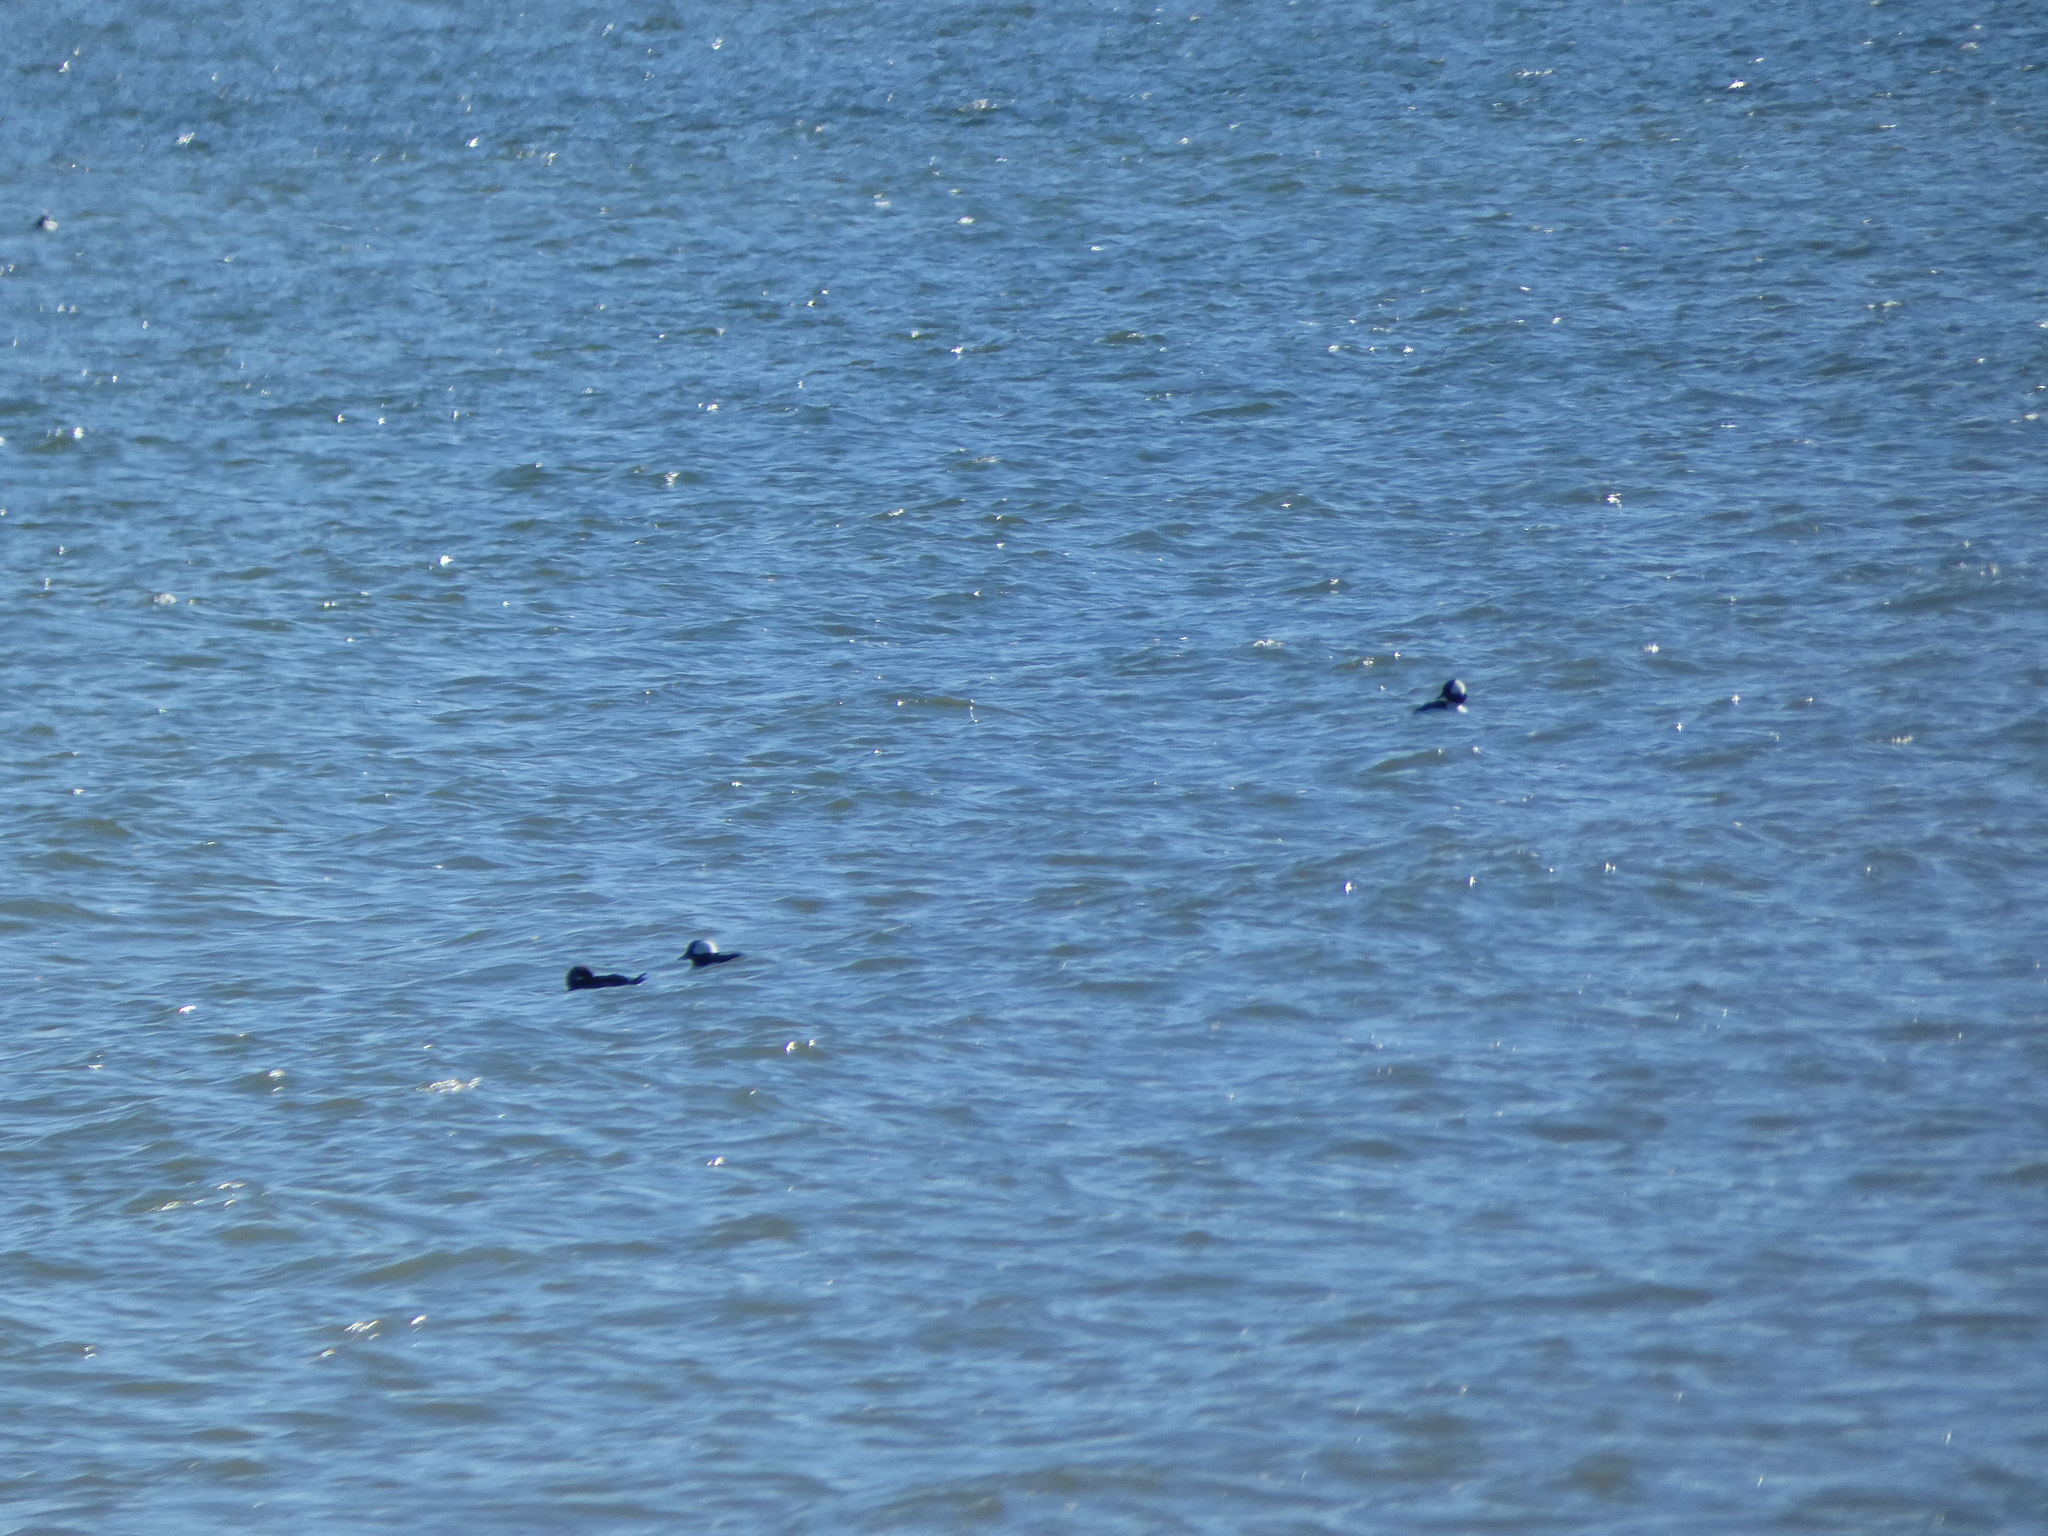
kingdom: Animalia
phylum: Chordata
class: Aves
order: Anseriformes
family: Anatidae
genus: Bucephala
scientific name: Bucephala albeola
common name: Bufflehead
